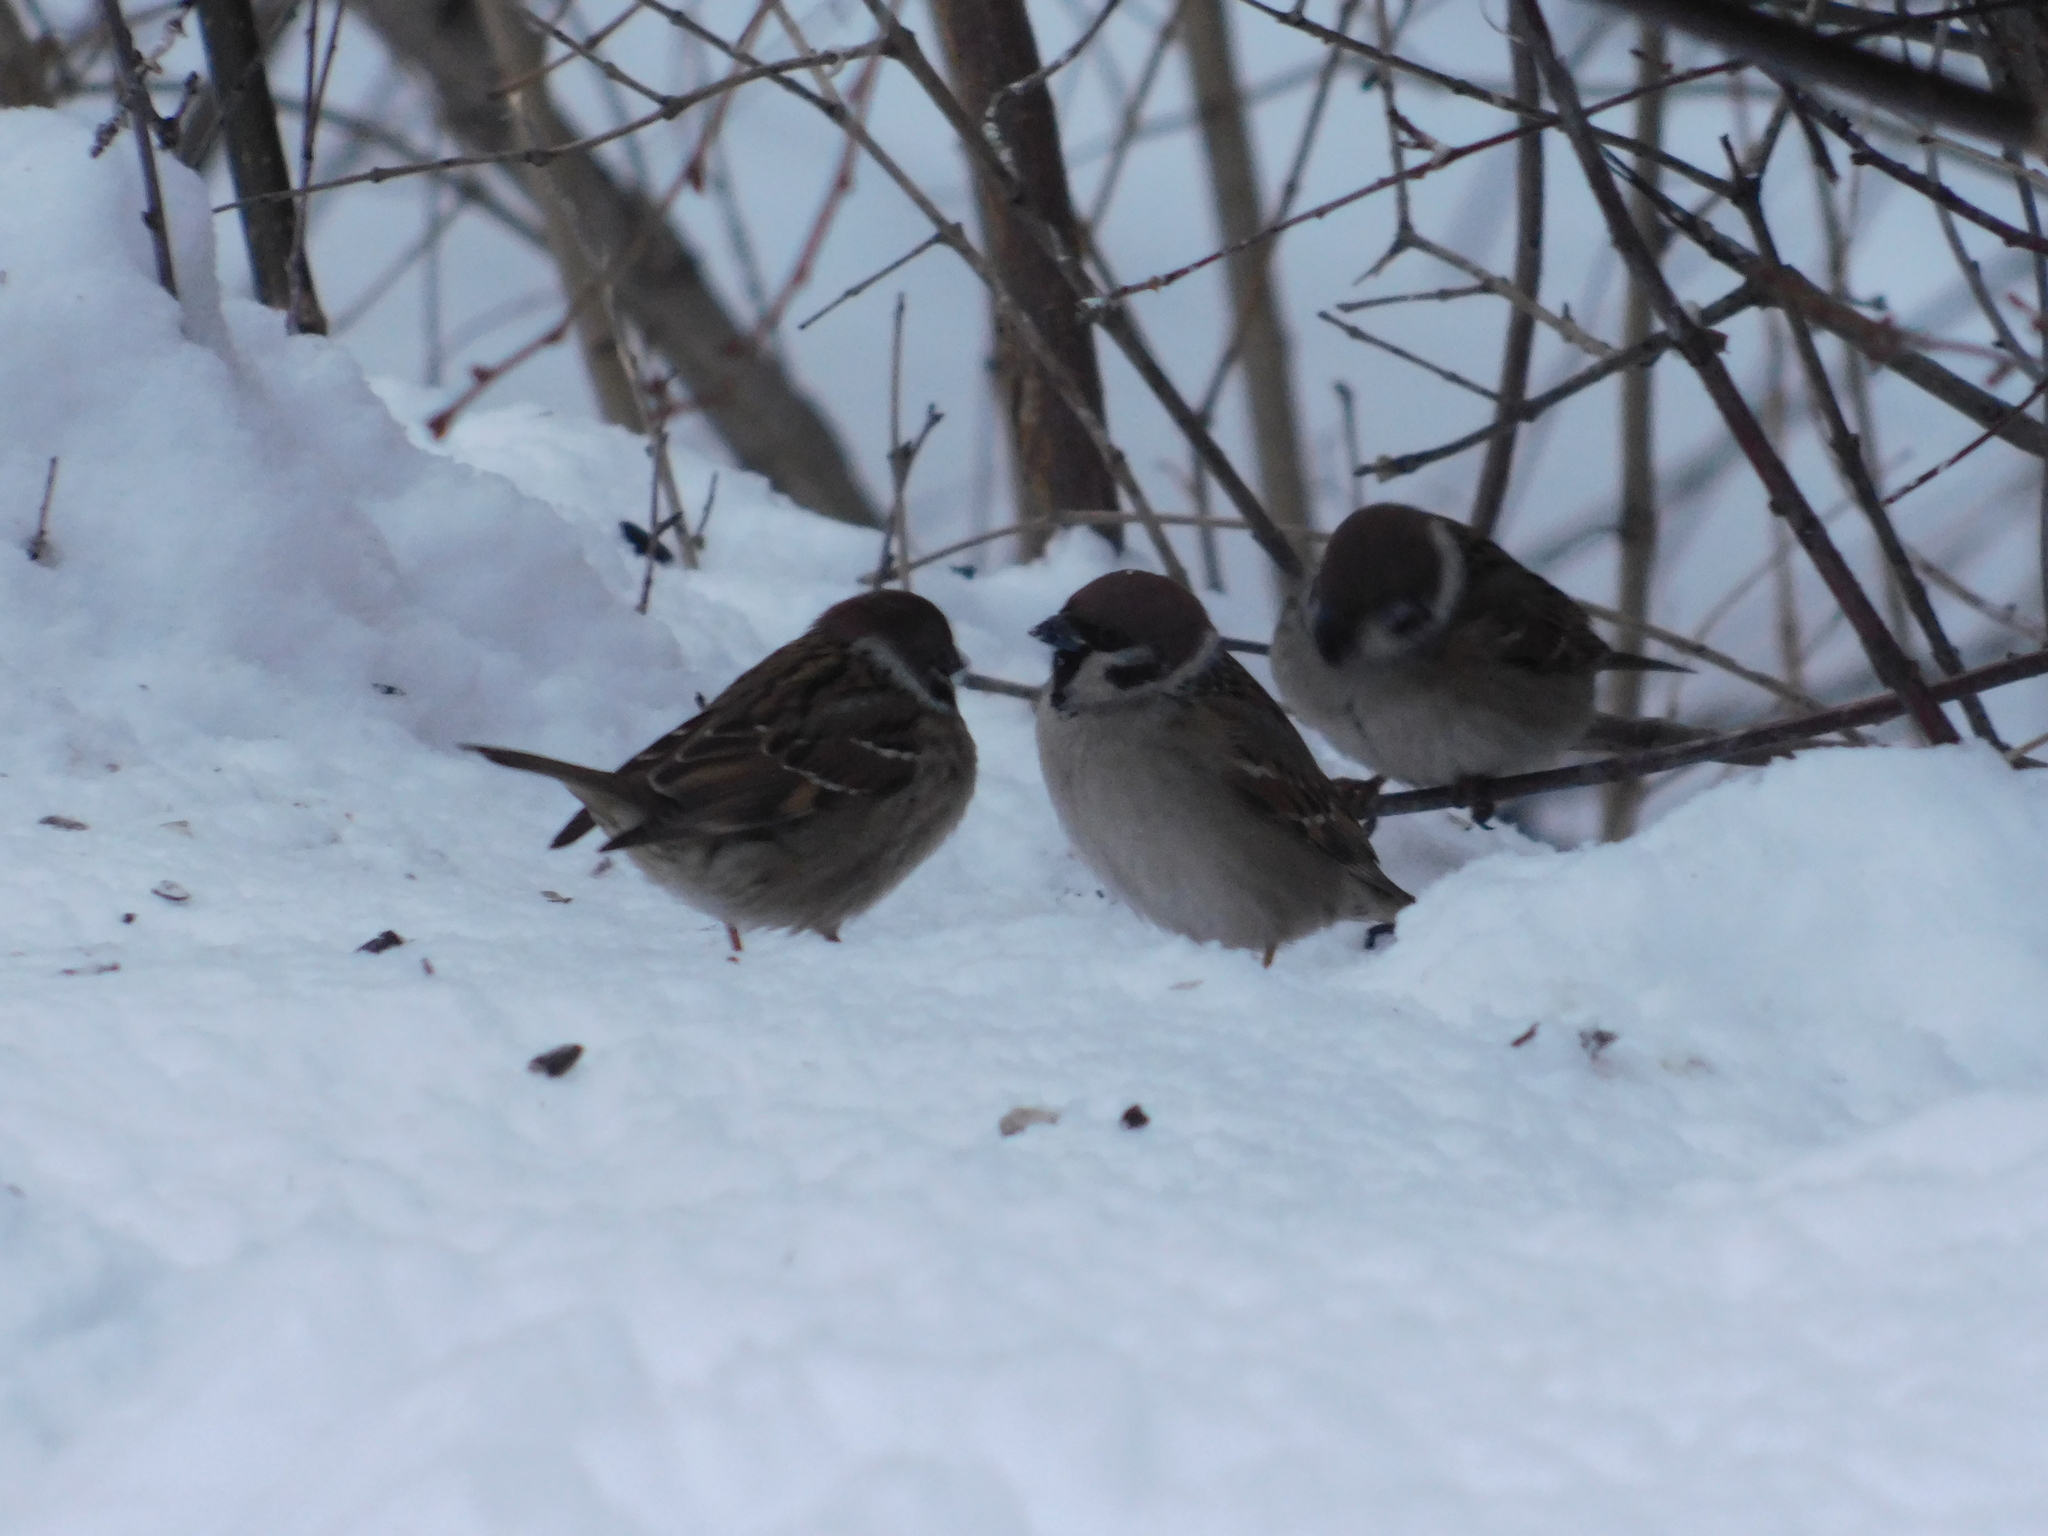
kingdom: Animalia
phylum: Chordata
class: Aves
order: Passeriformes
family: Passeridae
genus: Passer
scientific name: Passer montanus
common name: Eurasian tree sparrow
